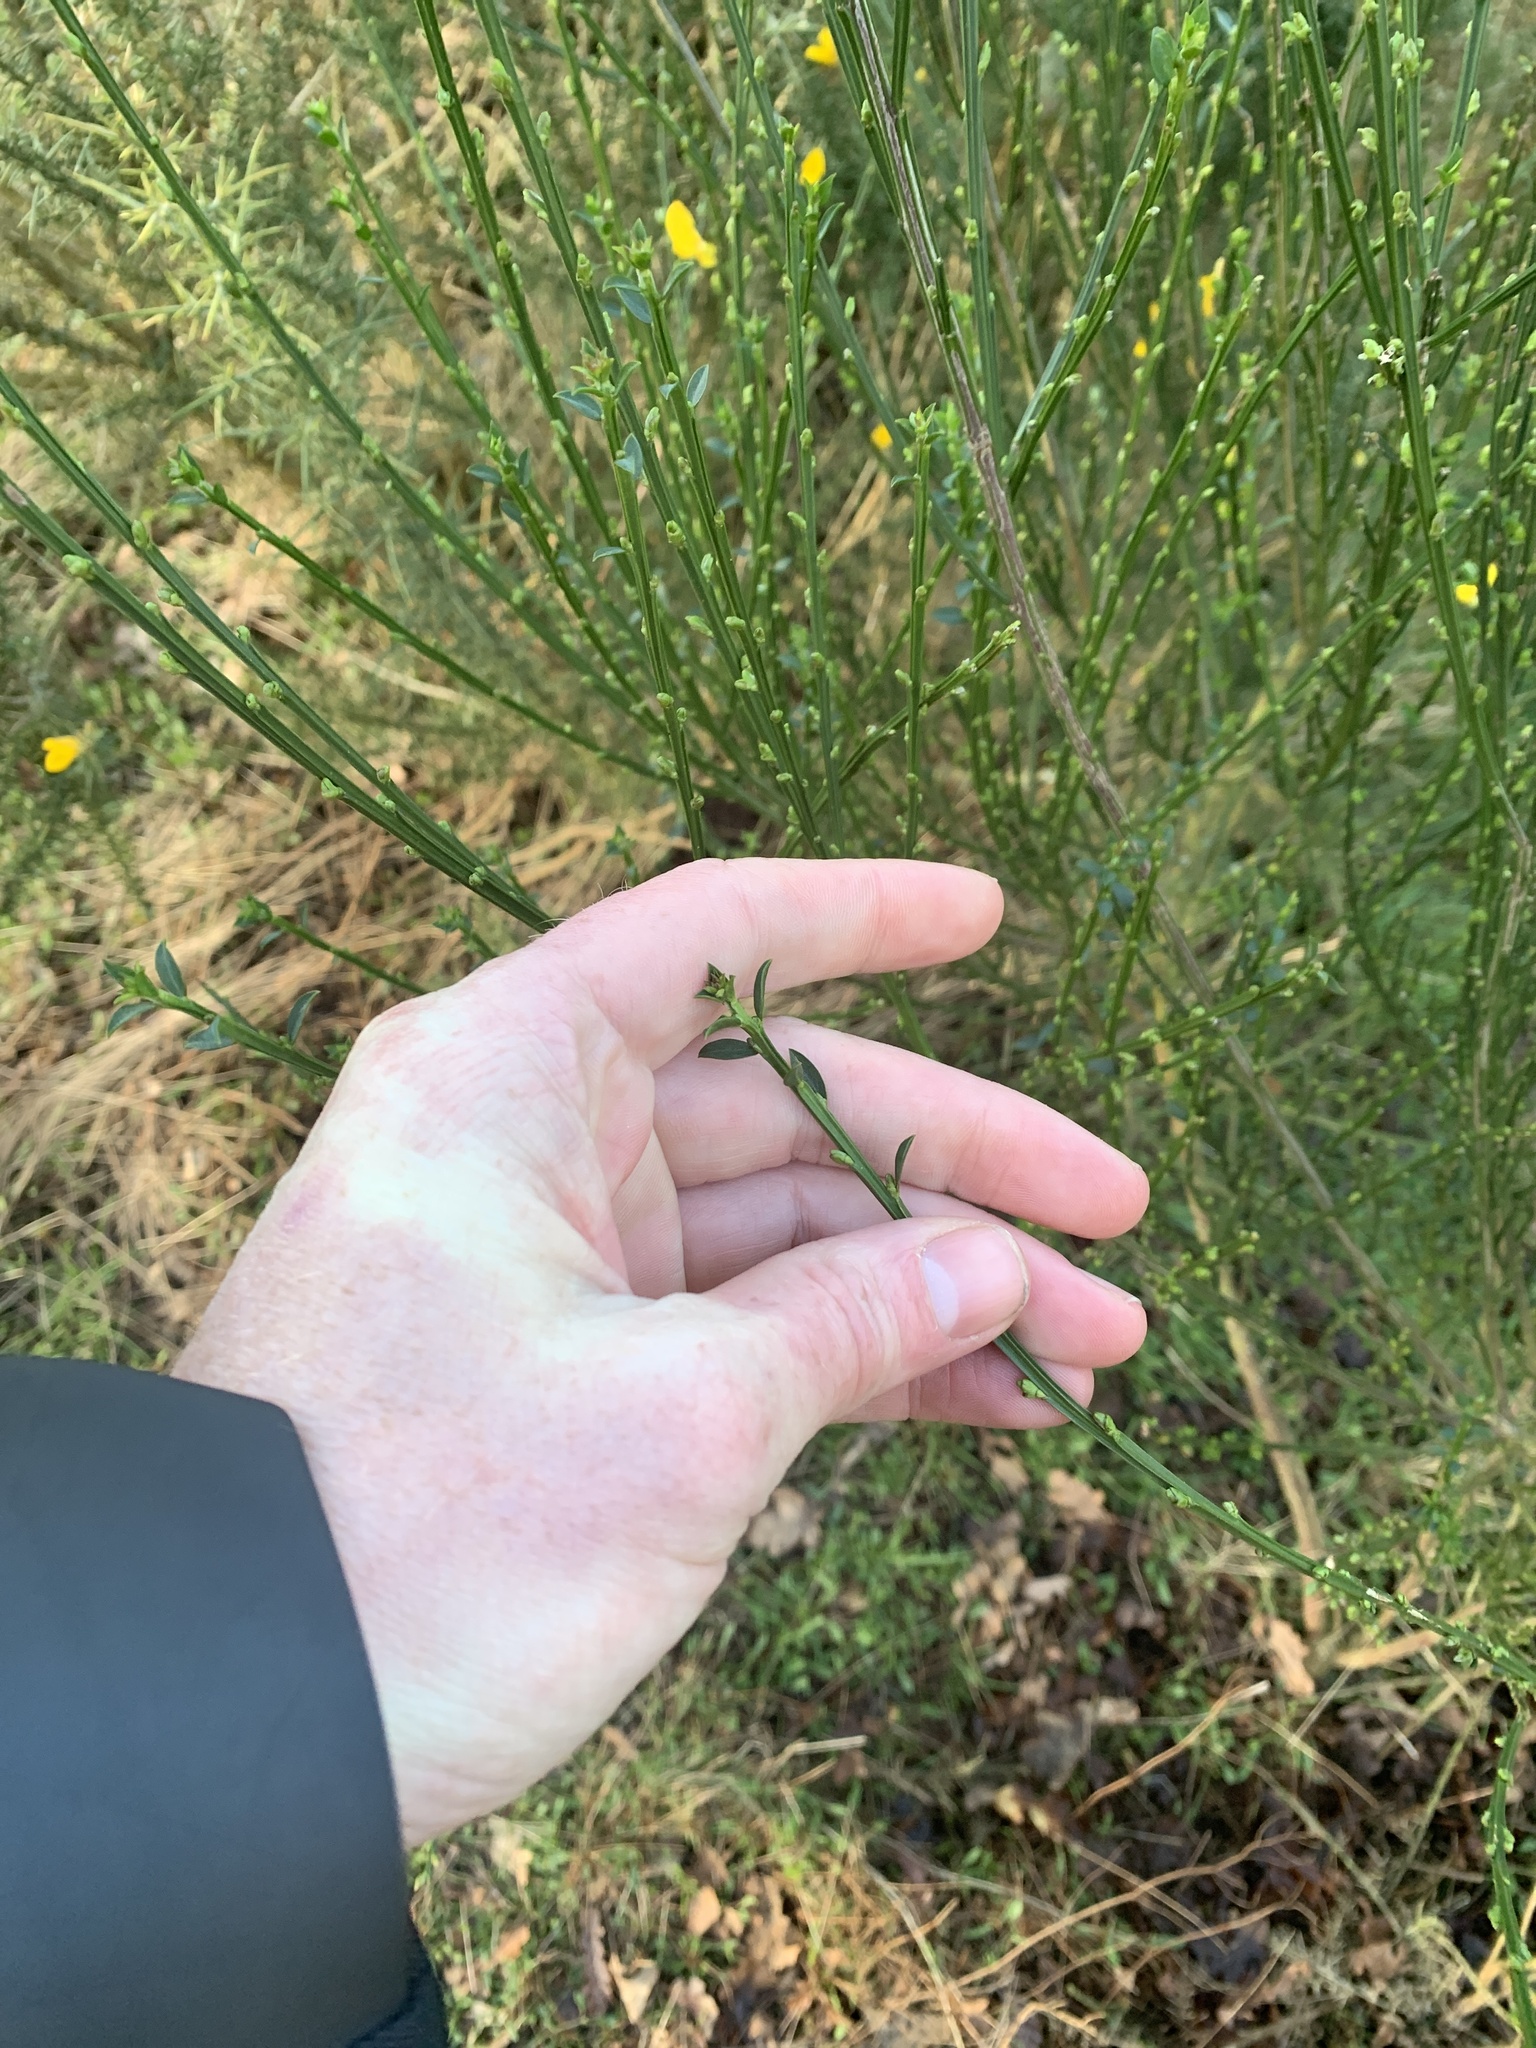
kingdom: Plantae
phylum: Tracheophyta
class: Magnoliopsida
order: Fabales
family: Fabaceae
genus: Cytisus
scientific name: Cytisus scoparius
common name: Scotch broom
